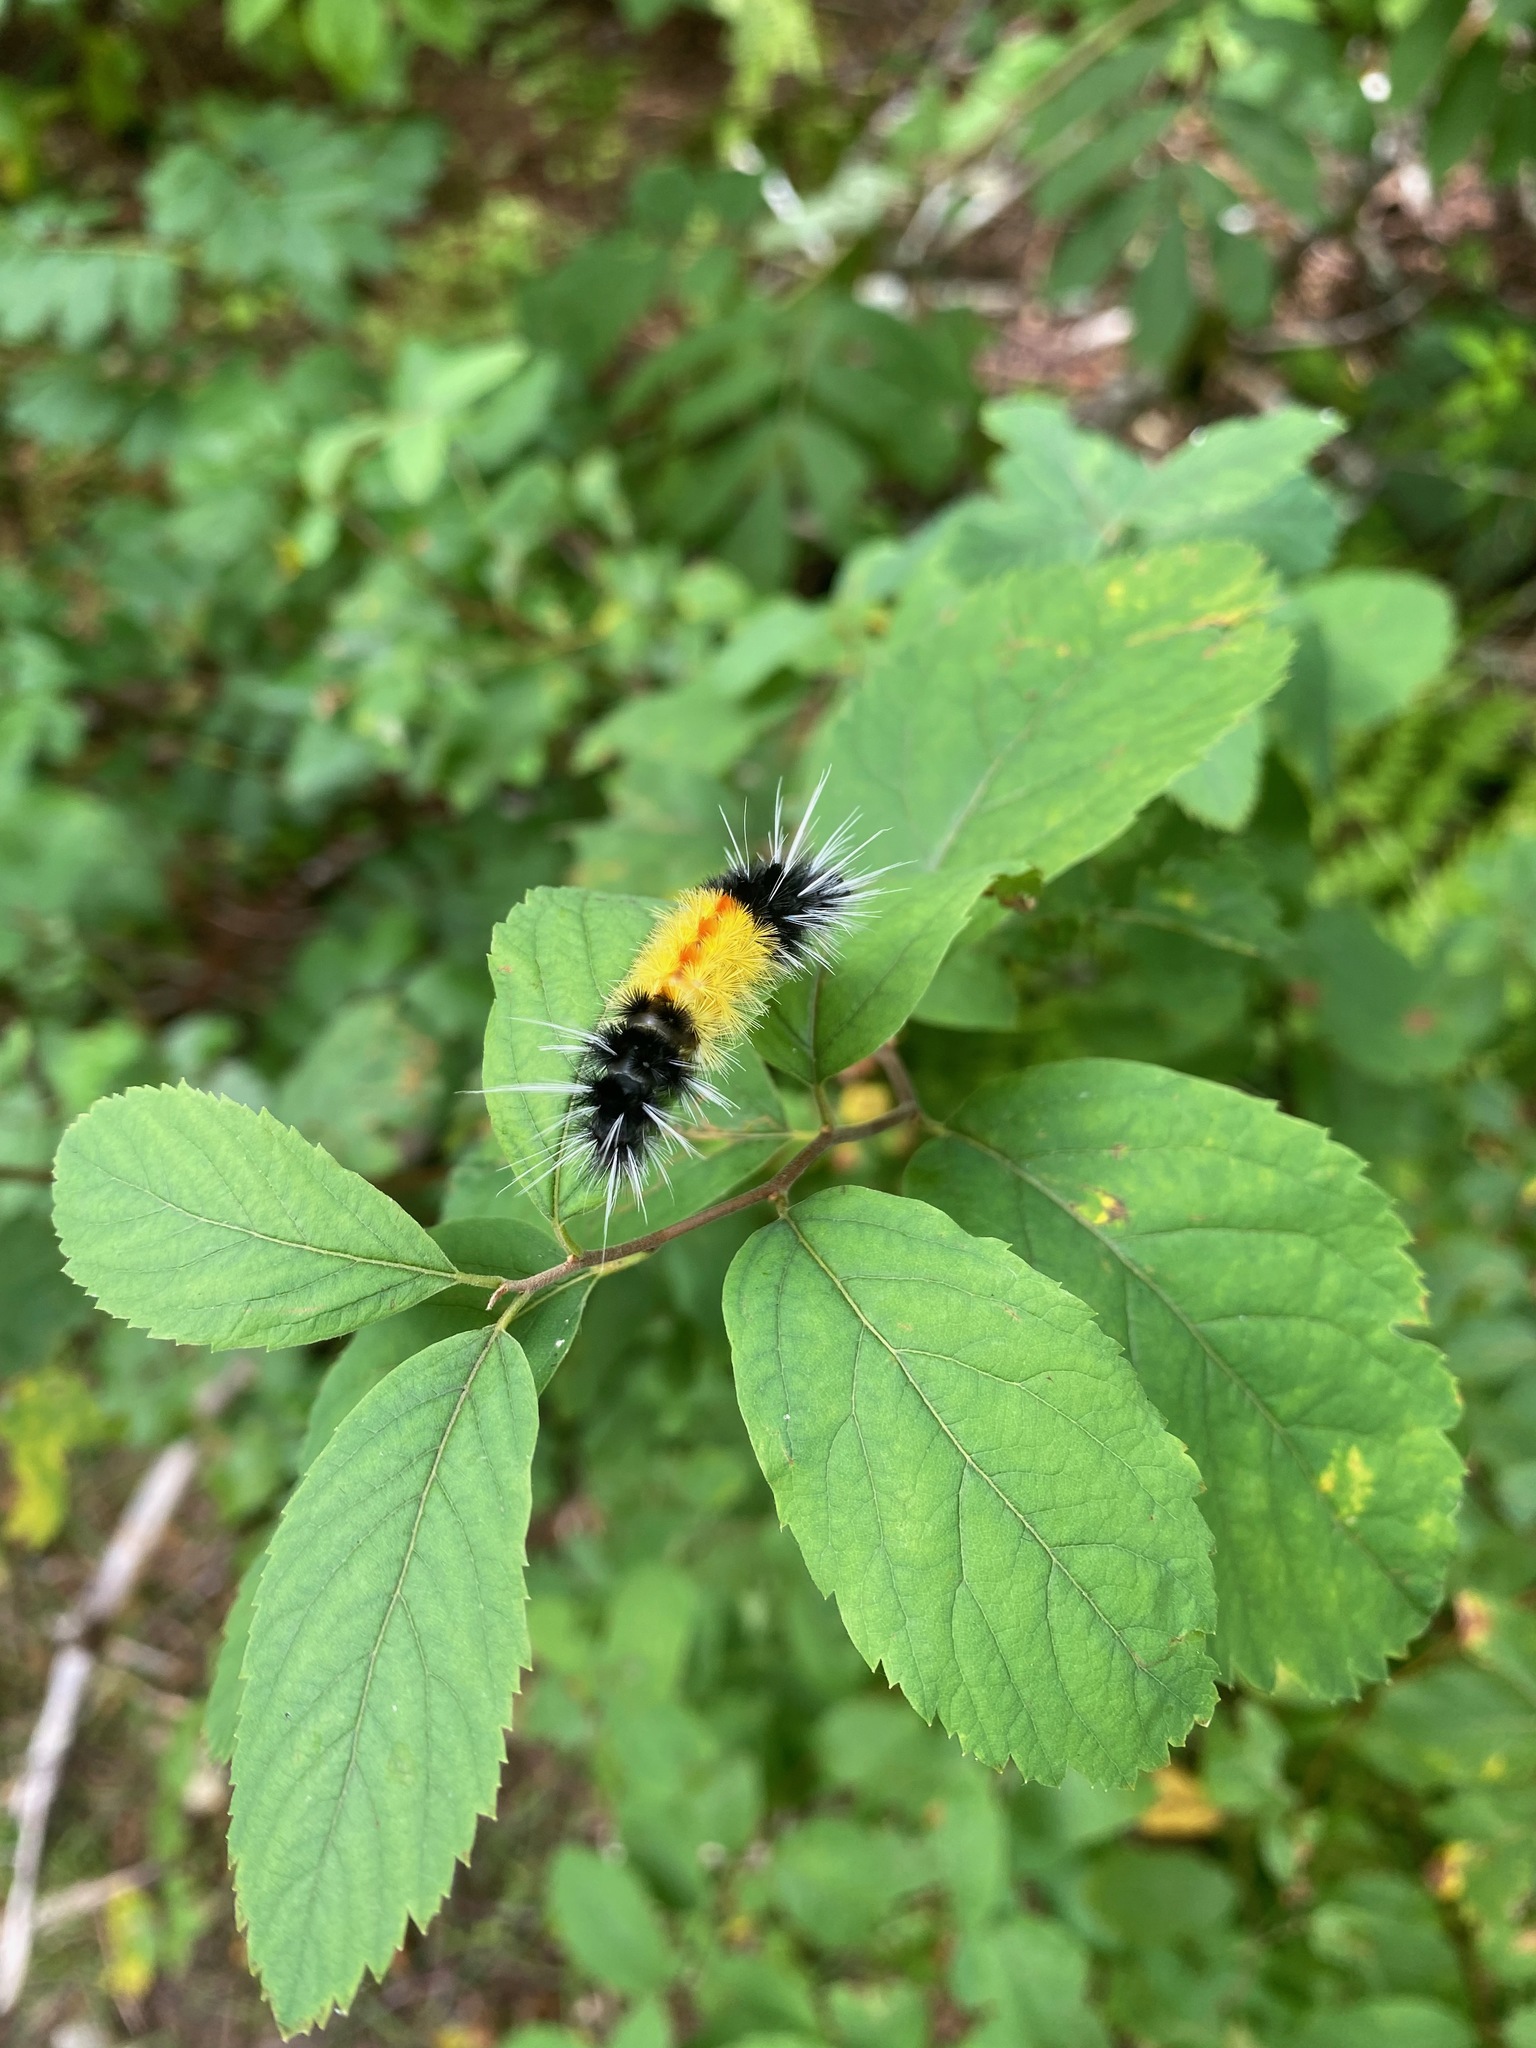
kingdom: Animalia
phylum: Arthropoda
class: Insecta
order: Lepidoptera
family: Erebidae
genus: Lophocampa
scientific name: Lophocampa maculata
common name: Spotted tussock moth
